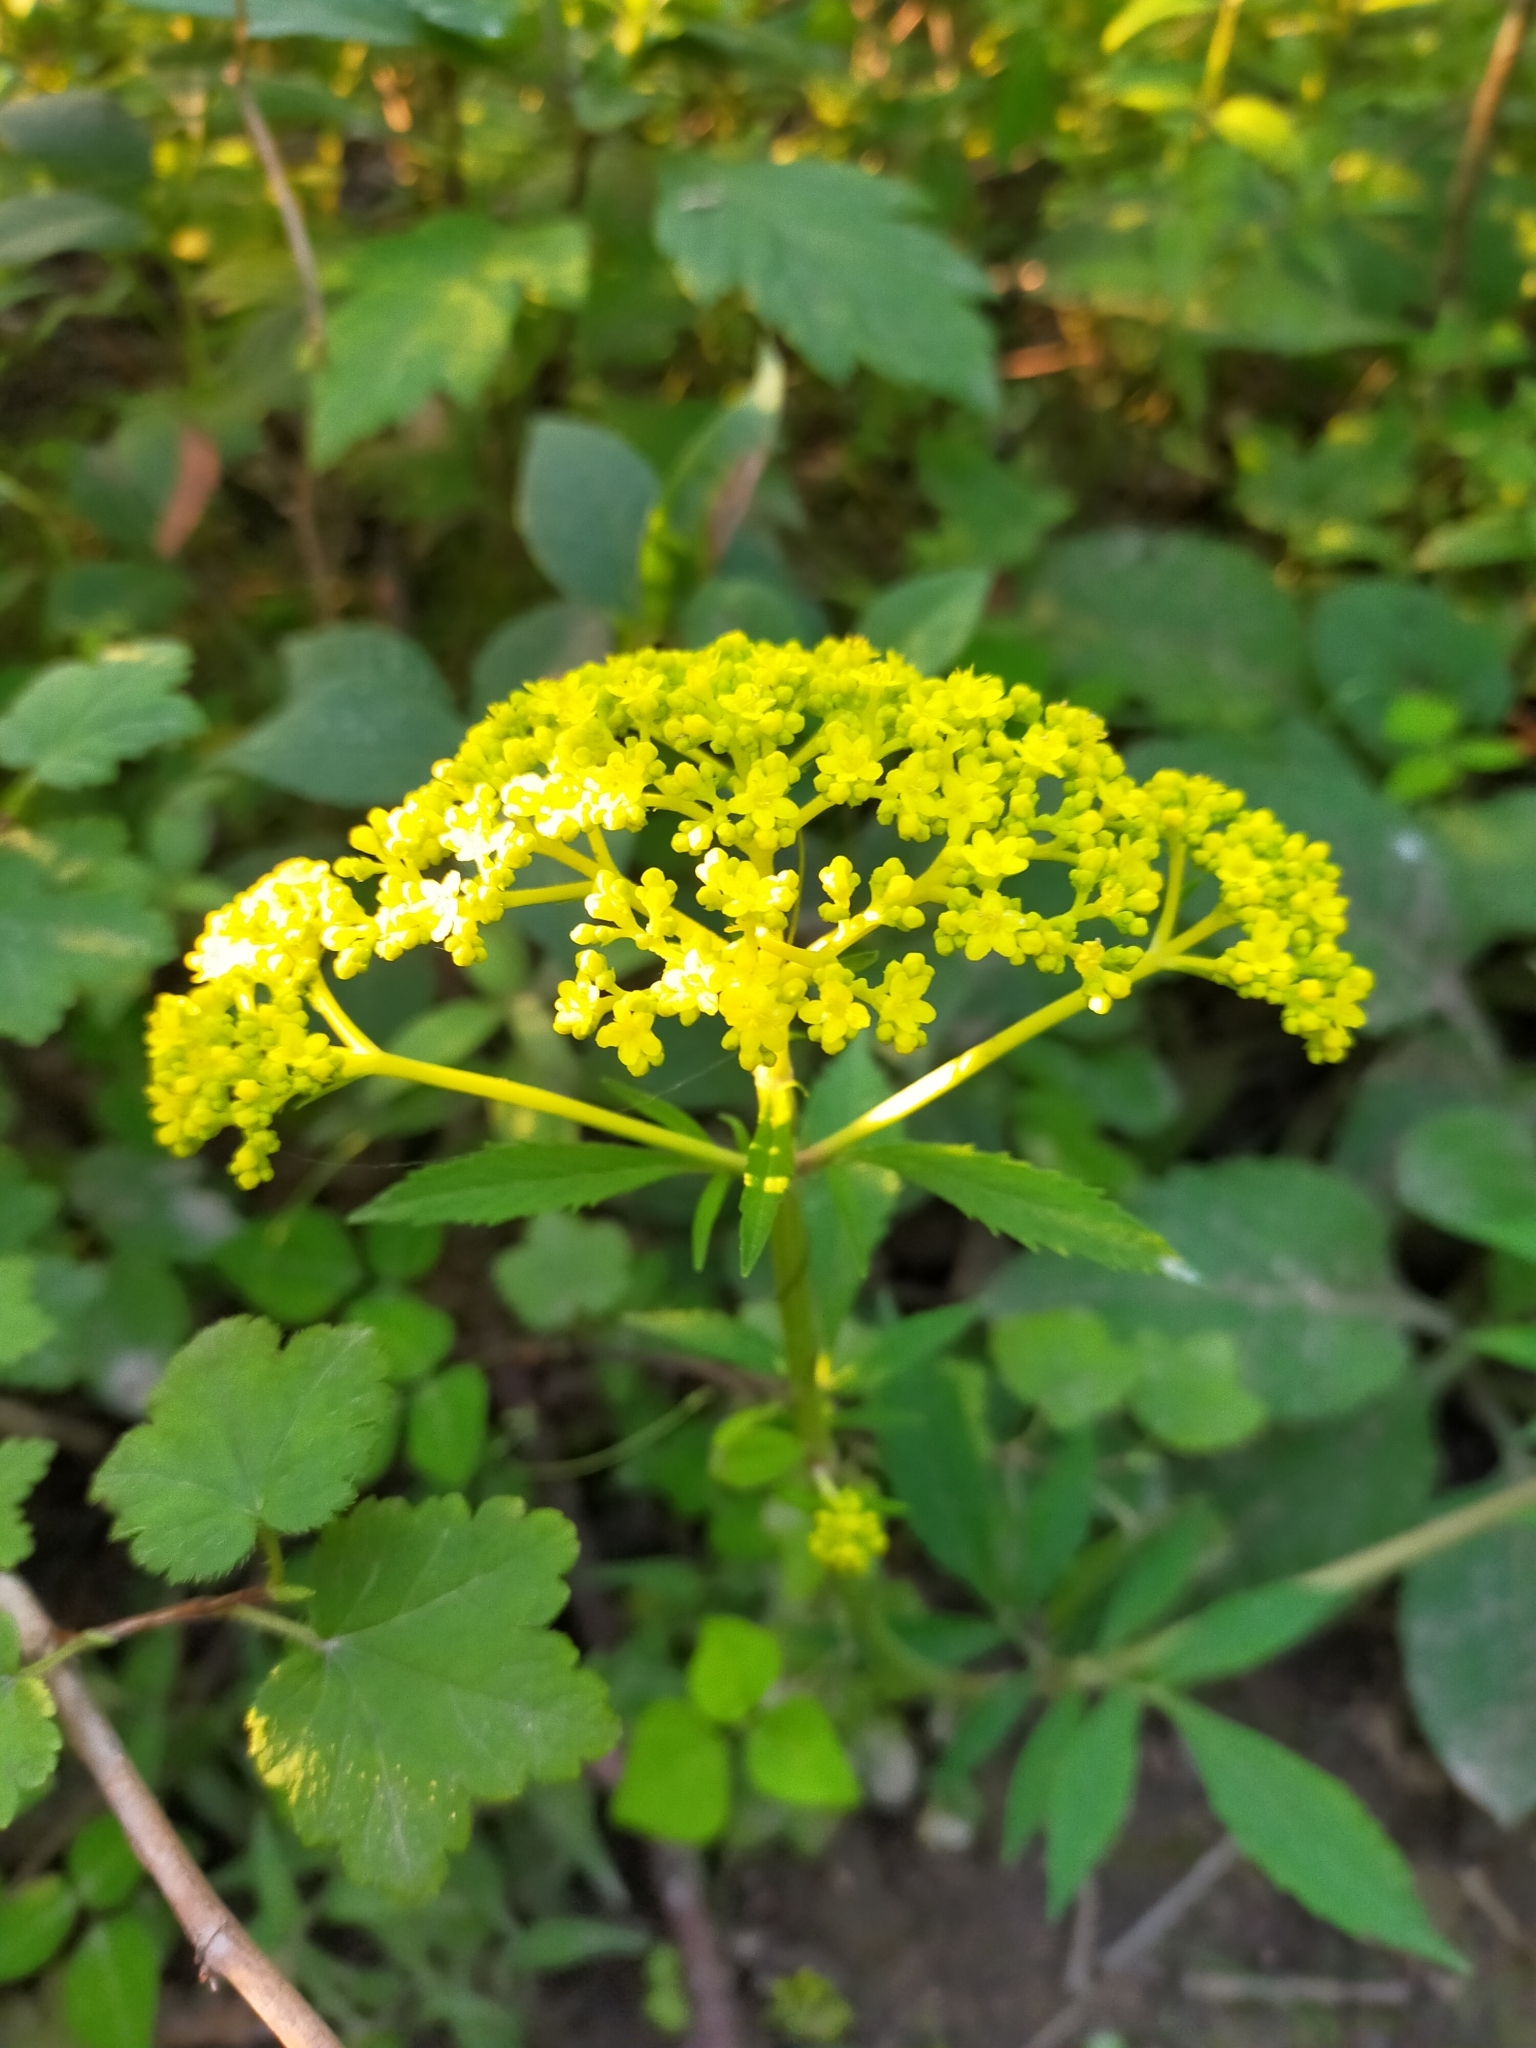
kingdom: Plantae
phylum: Tracheophyta
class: Magnoliopsida
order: Dipsacales
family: Caprifoliaceae
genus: Patrinia
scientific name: Patrinia scabiosifolia
